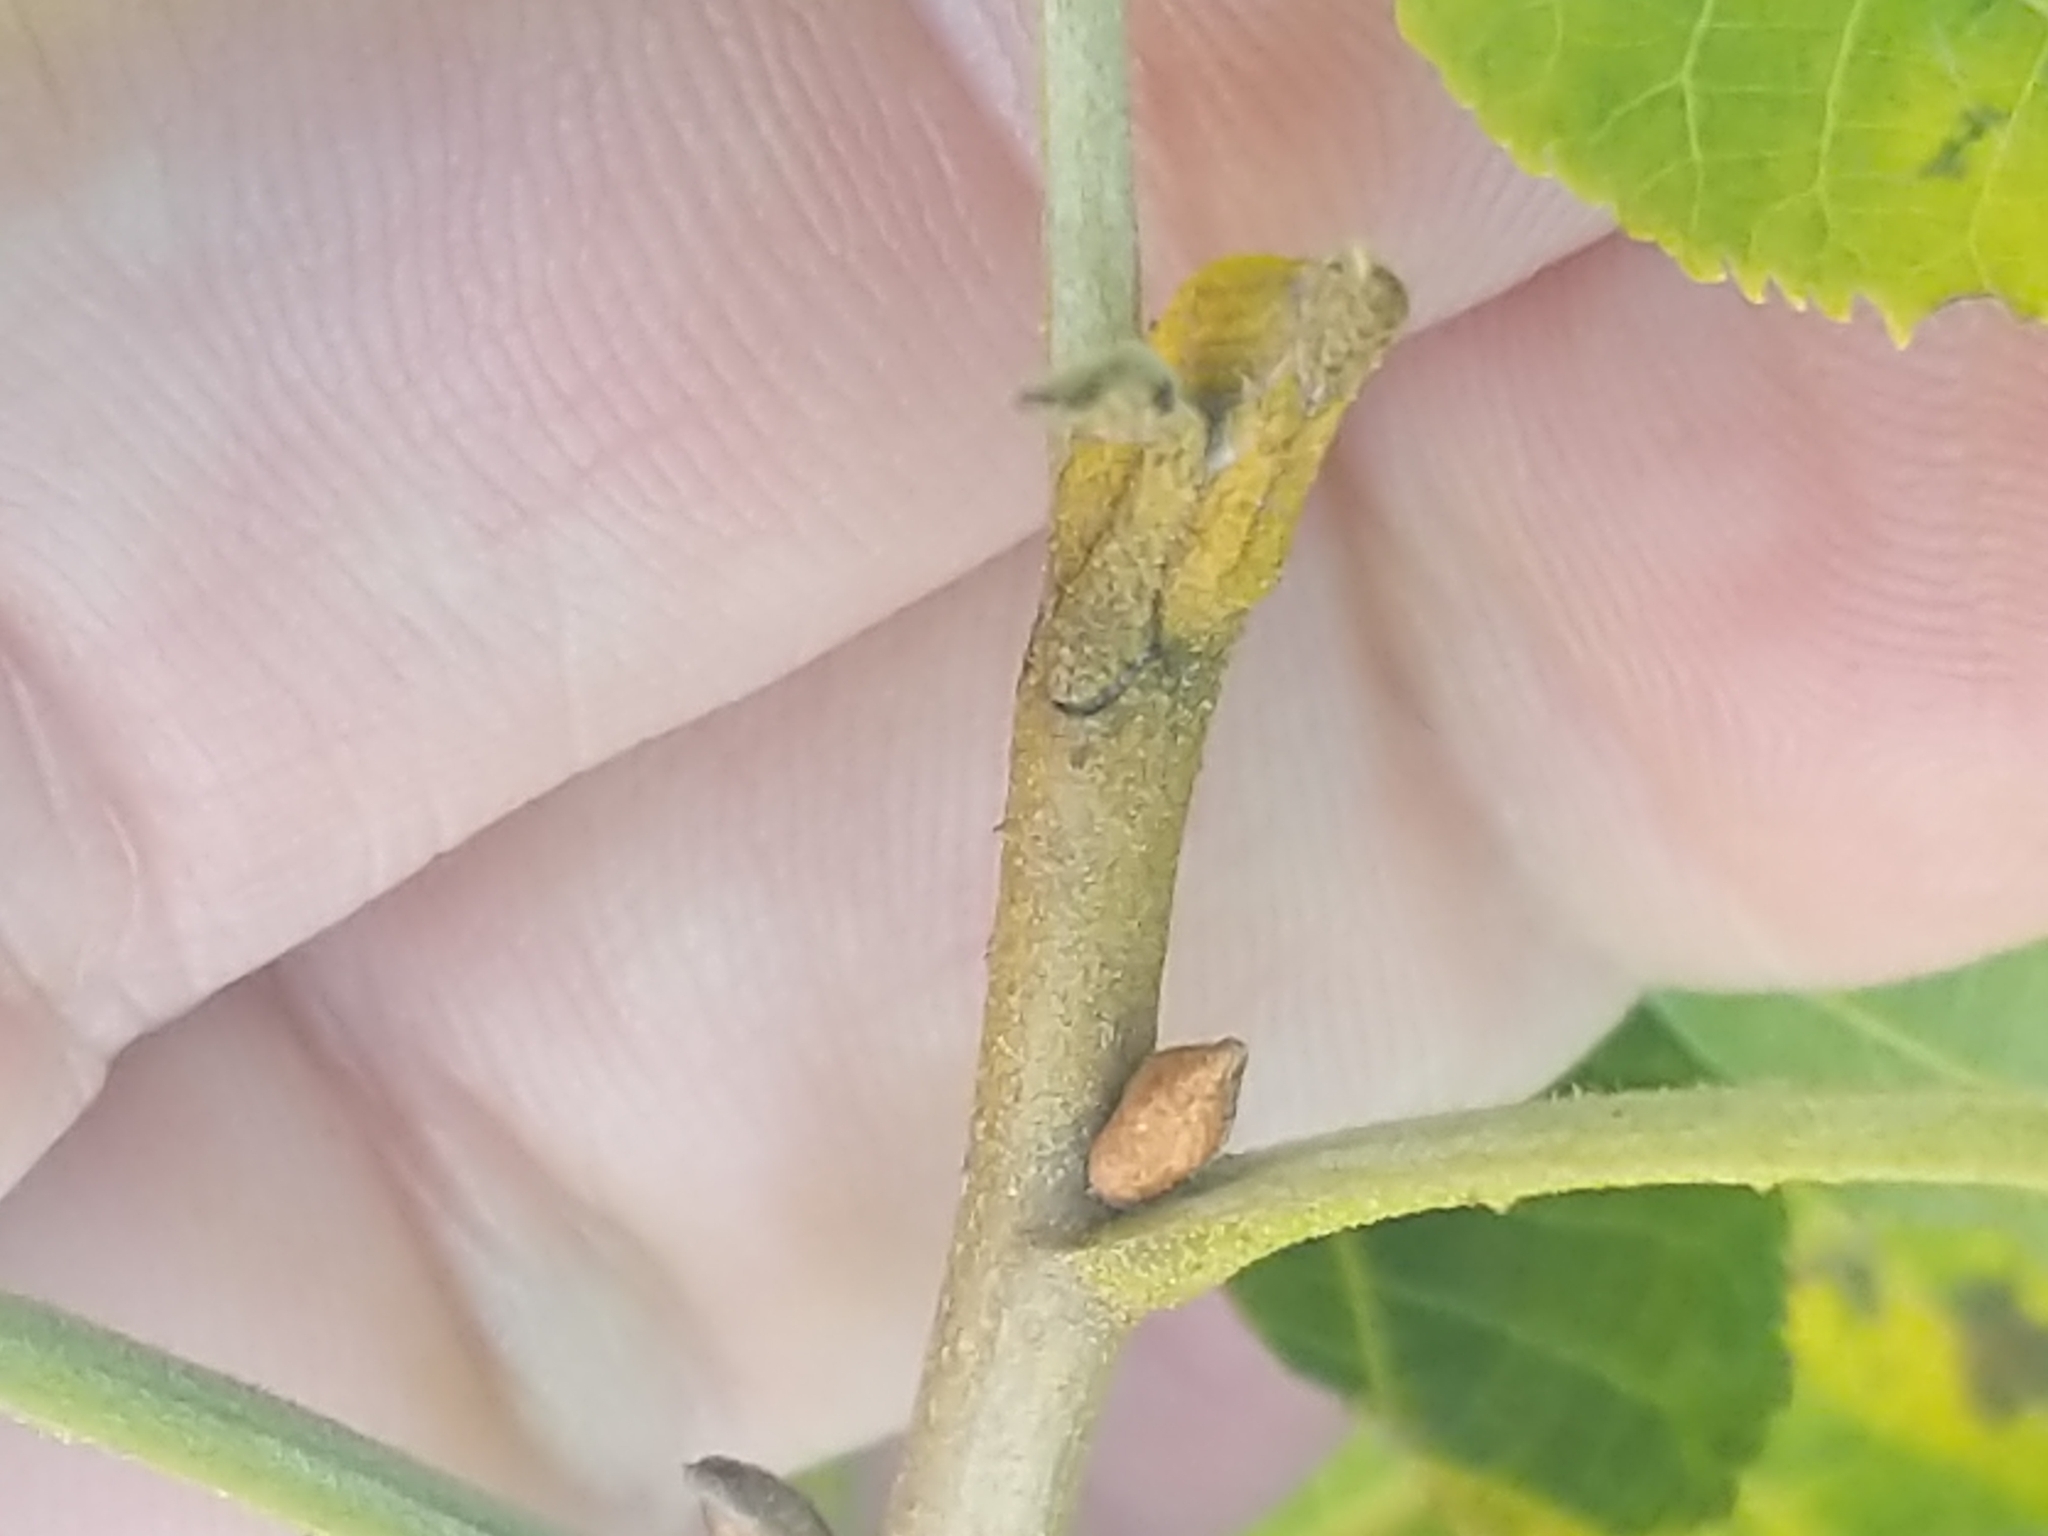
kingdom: Plantae
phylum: Tracheophyta
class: Magnoliopsida
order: Fagales
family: Juglandaceae
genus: Carya
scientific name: Carya cordiformis
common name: Bitternut hickory
